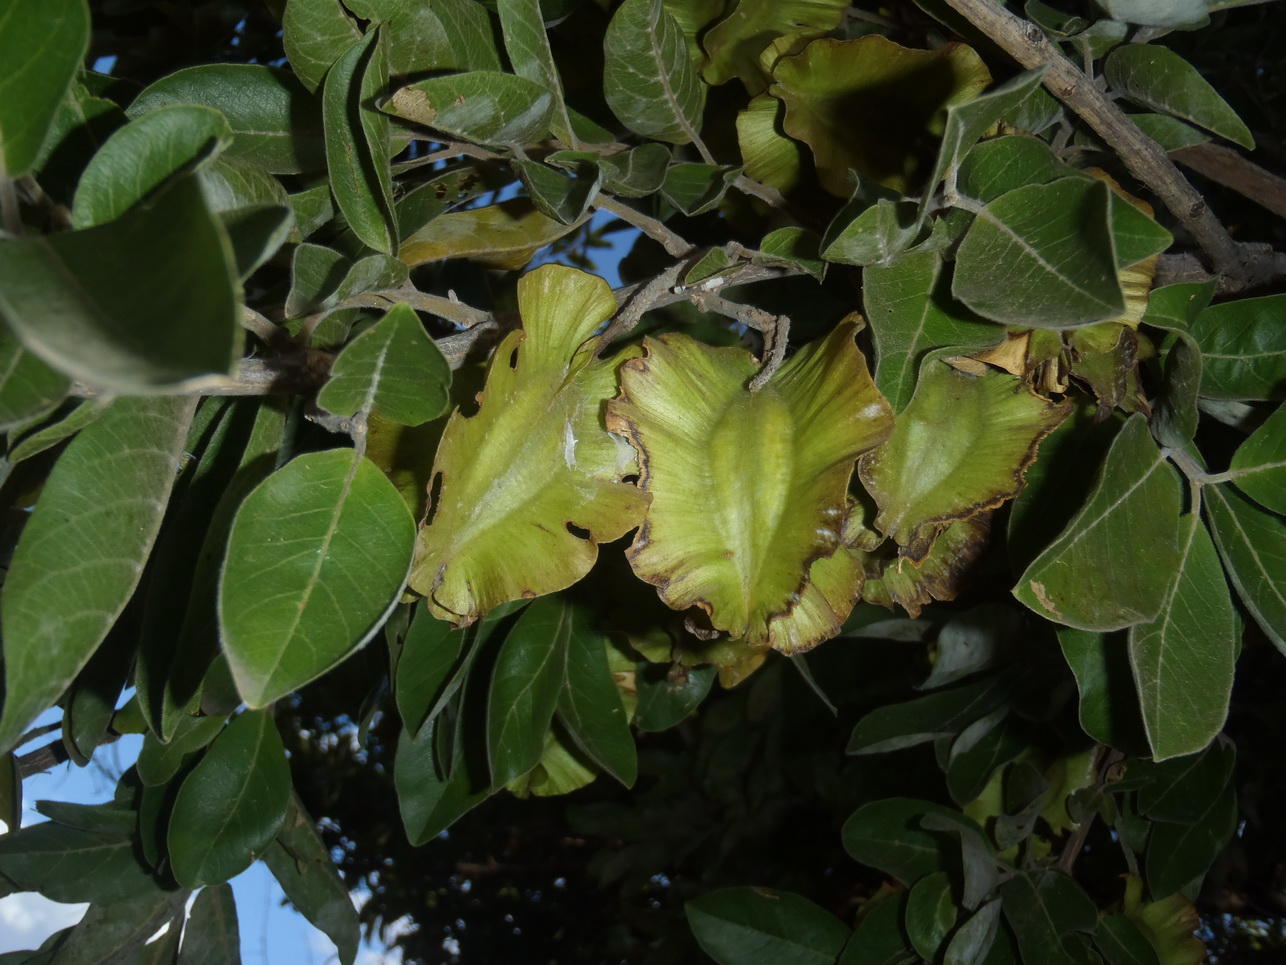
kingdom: Plantae
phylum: Tracheophyta
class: Magnoliopsida
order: Myrtales
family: Combretaceae
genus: Combretum
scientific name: Combretum zeyheri
